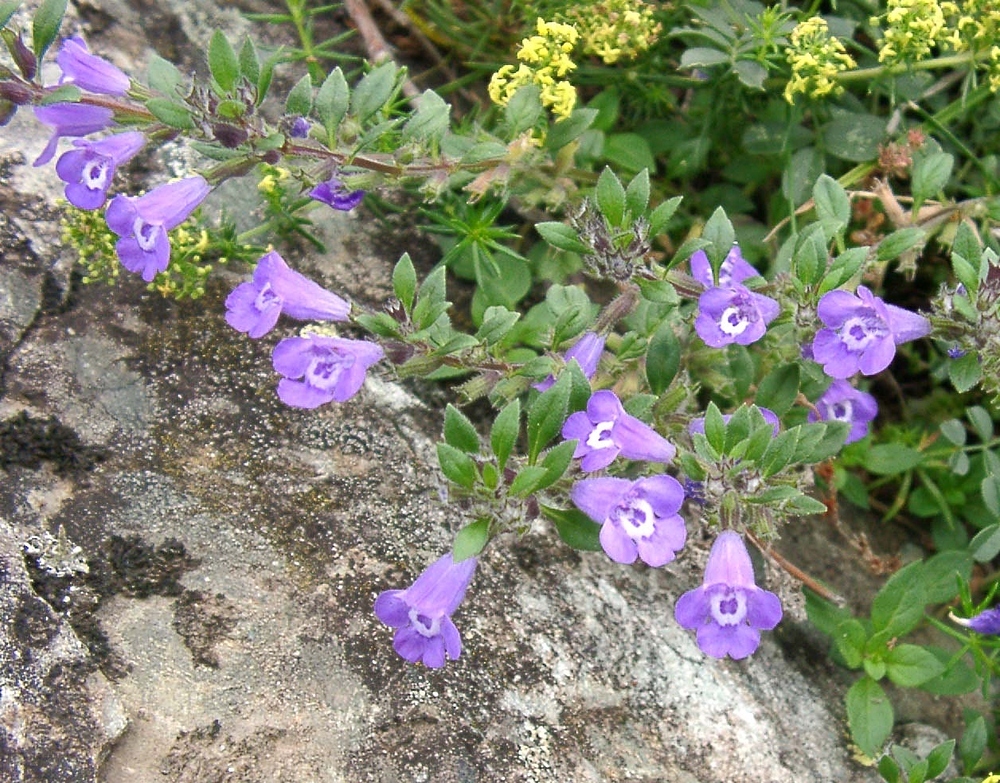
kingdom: Plantae
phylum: Tracheophyta
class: Magnoliopsida
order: Lamiales
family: Lamiaceae
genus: Clinopodium
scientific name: Clinopodium alpinum
